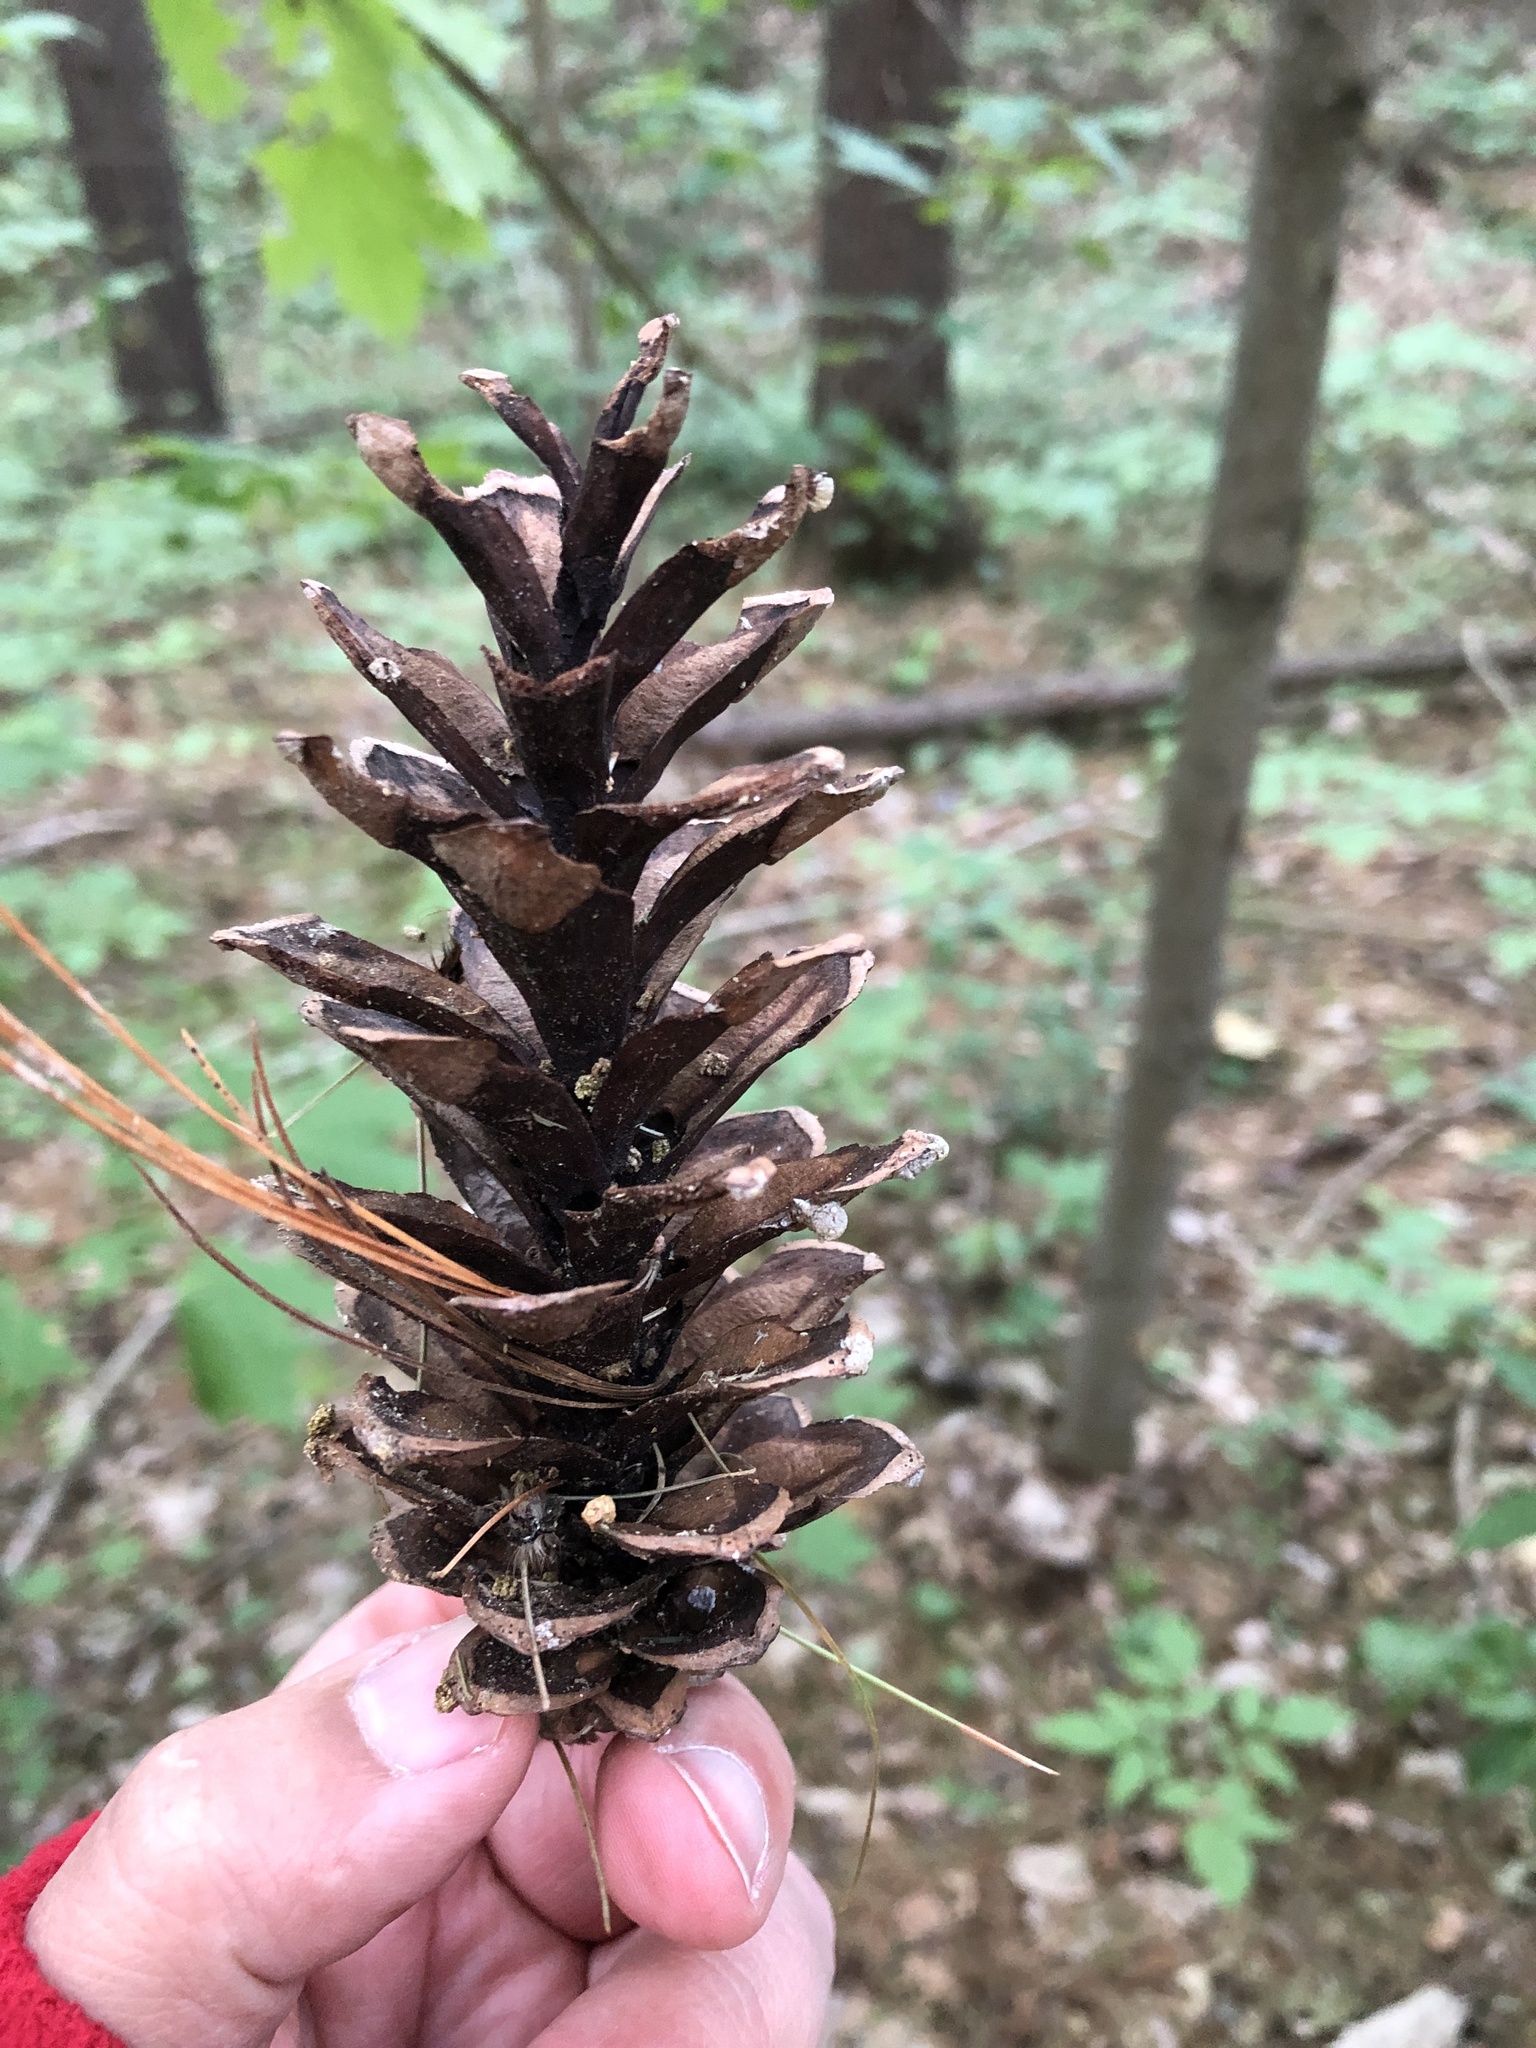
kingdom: Plantae
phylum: Tracheophyta
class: Pinopsida
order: Pinales
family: Pinaceae
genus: Pinus
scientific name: Pinus strobus
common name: Weymouth pine
